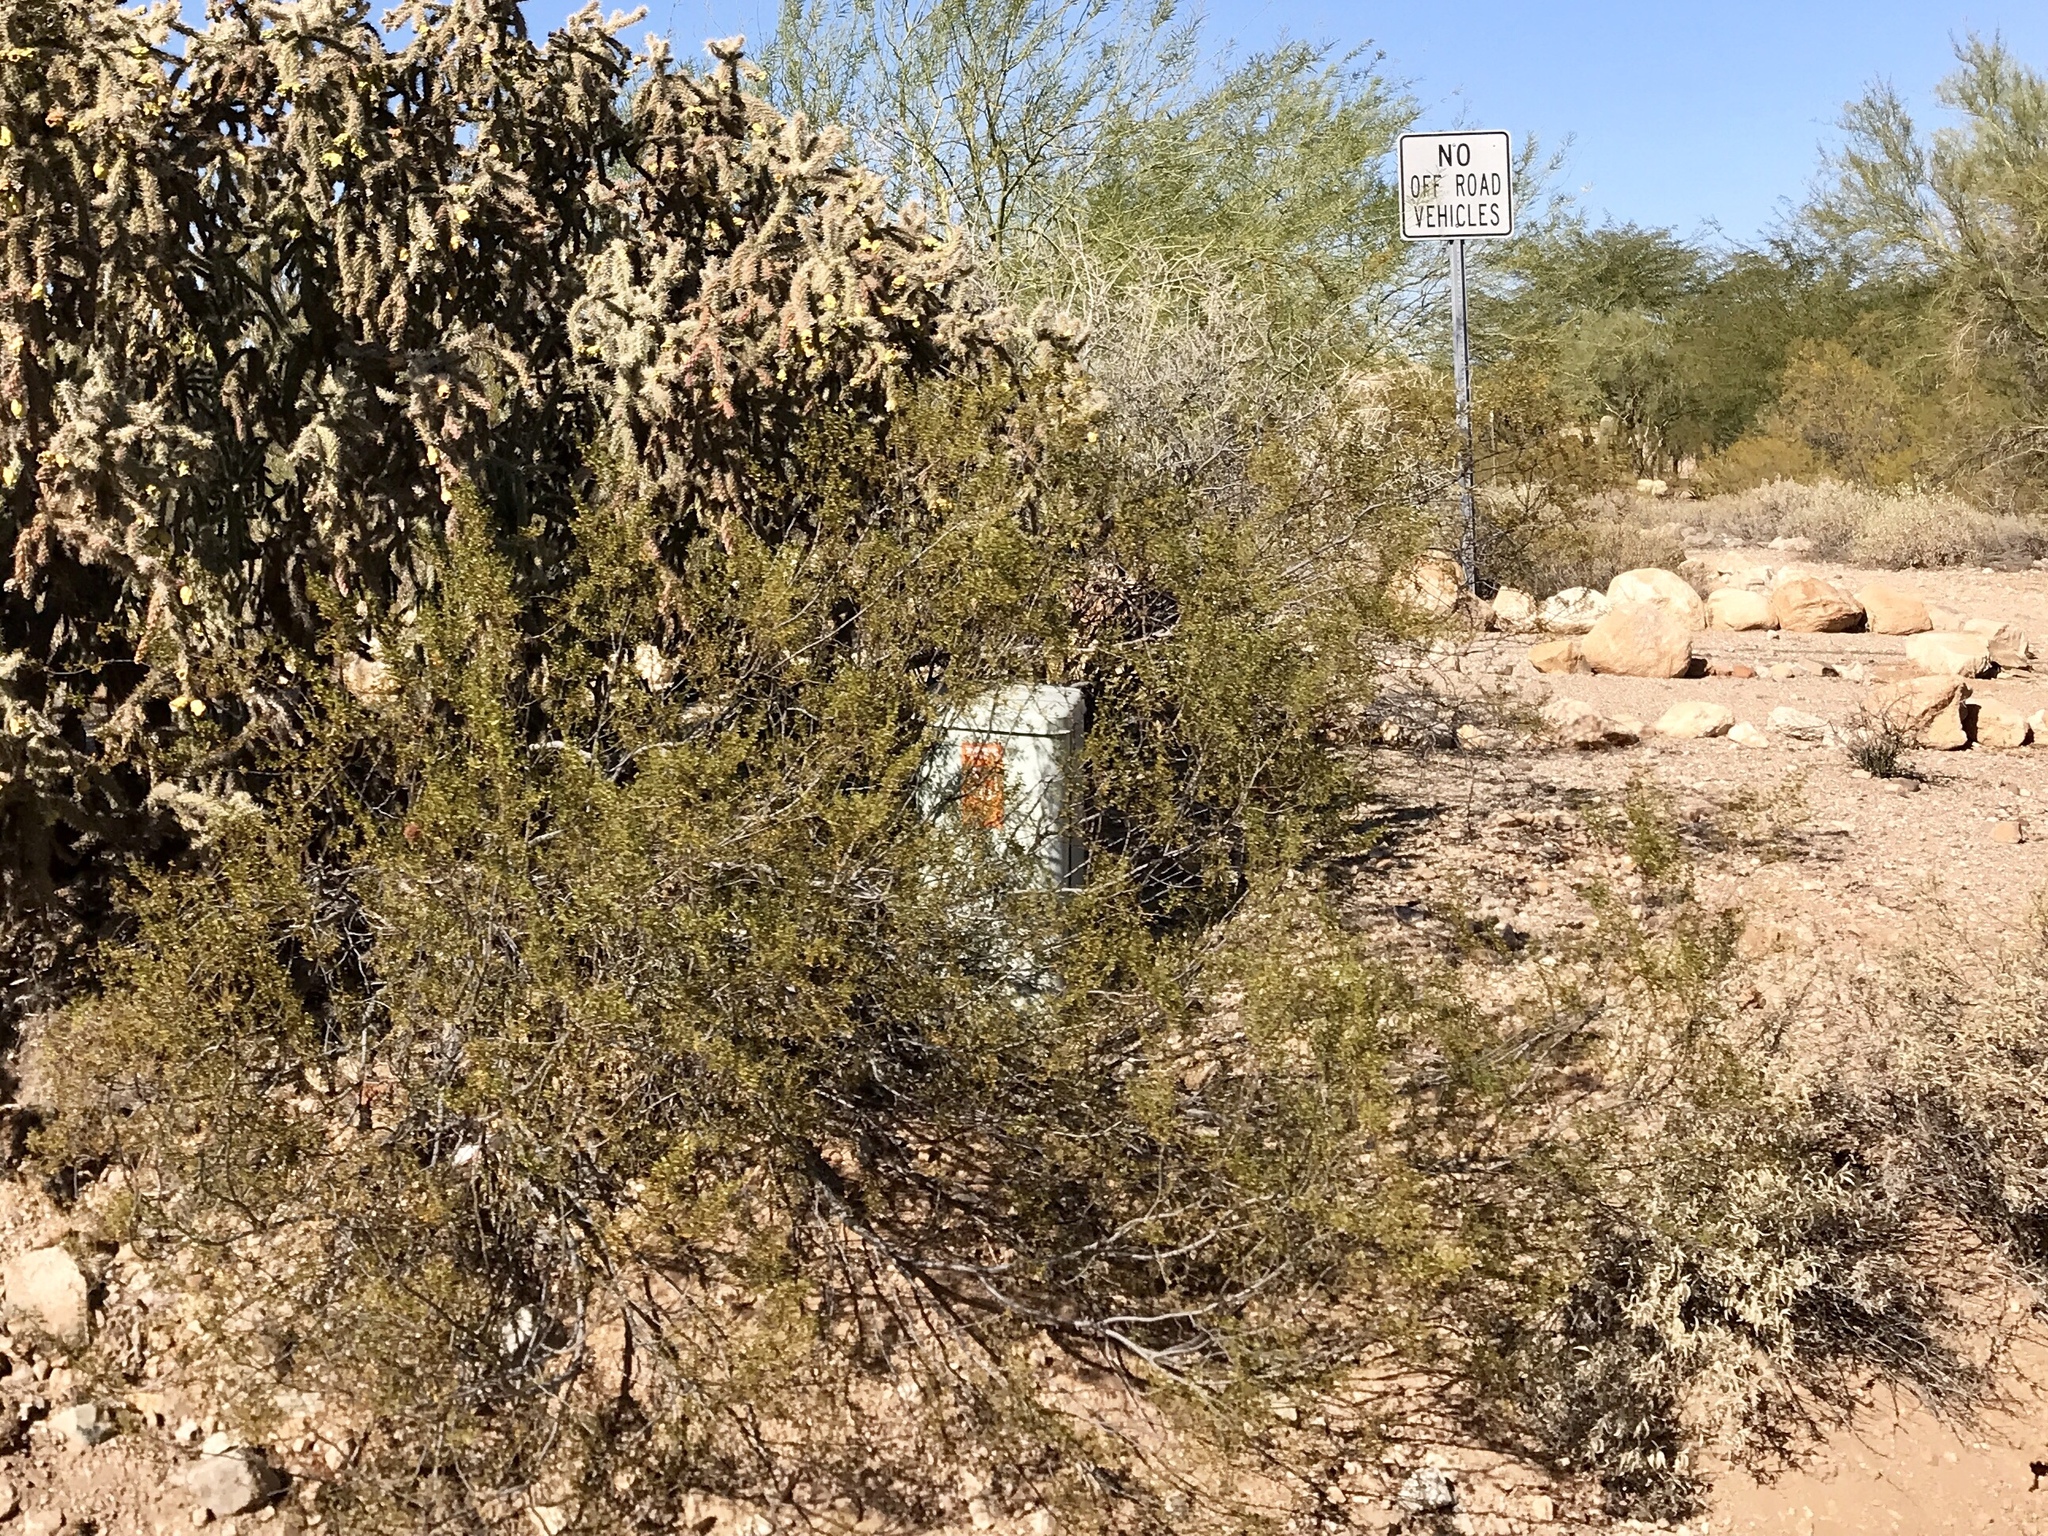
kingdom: Plantae
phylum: Tracheophyta
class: Magnoliopsida
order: Zygophyllales
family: Zygophyllaceae
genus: Larrea
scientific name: Larrea tridentata
